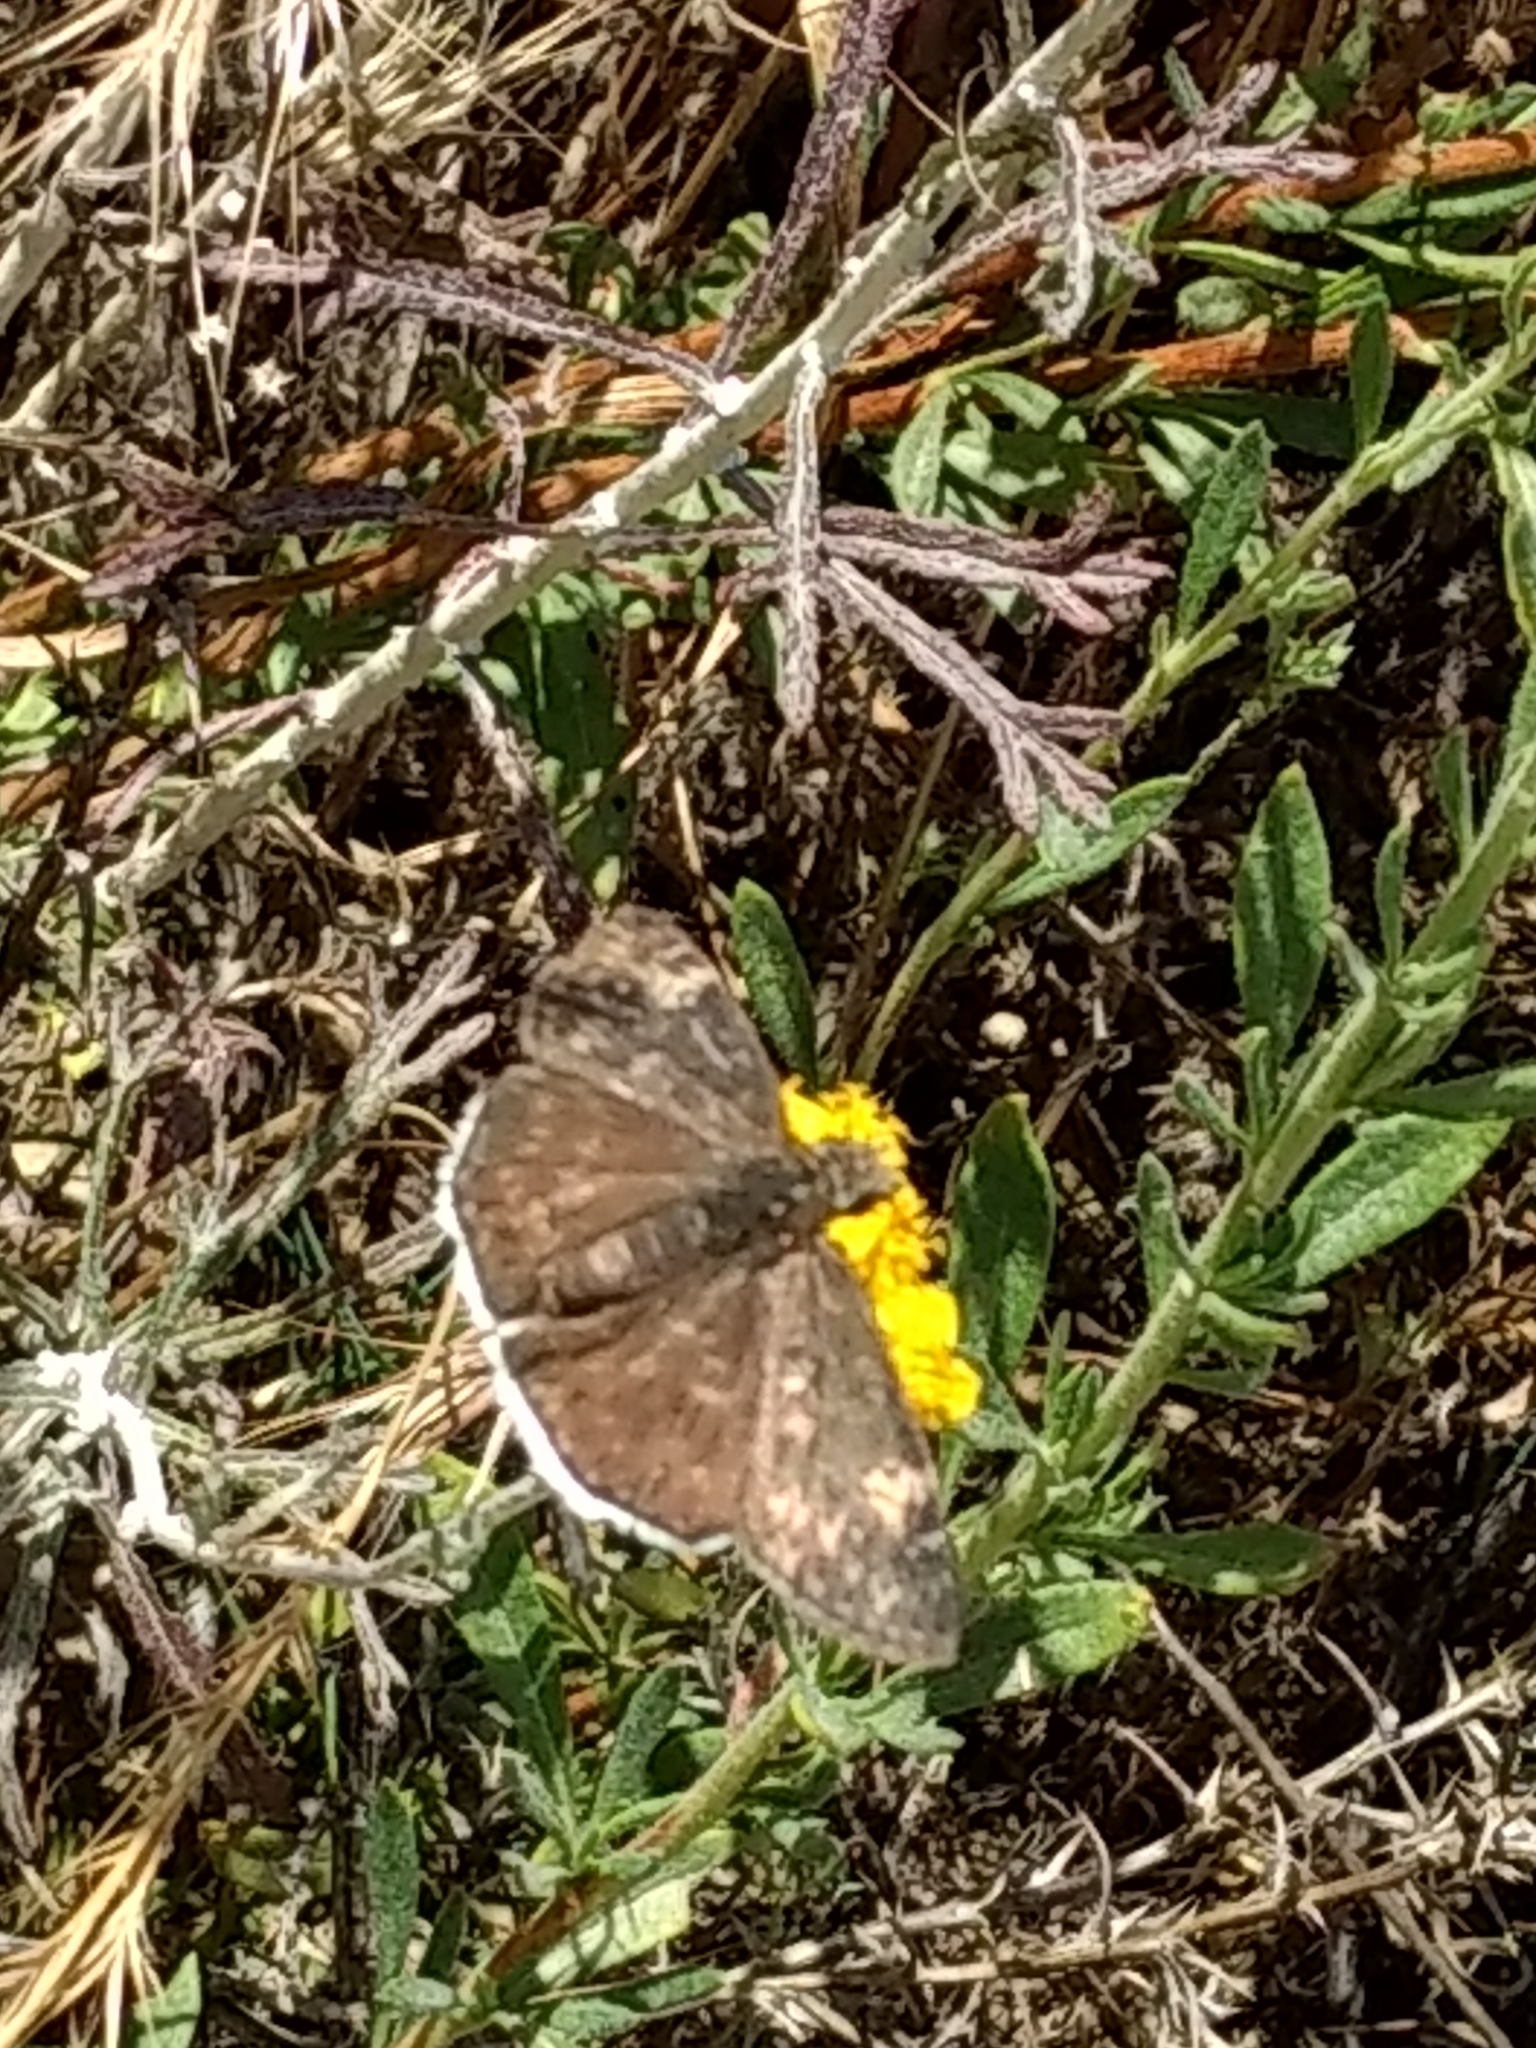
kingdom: Animalia
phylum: Arthropoda
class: Insecta
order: Lepidoptera
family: Hesperiidae
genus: Erynnis
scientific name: Erynnis funeralis
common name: Funereal duskywing
